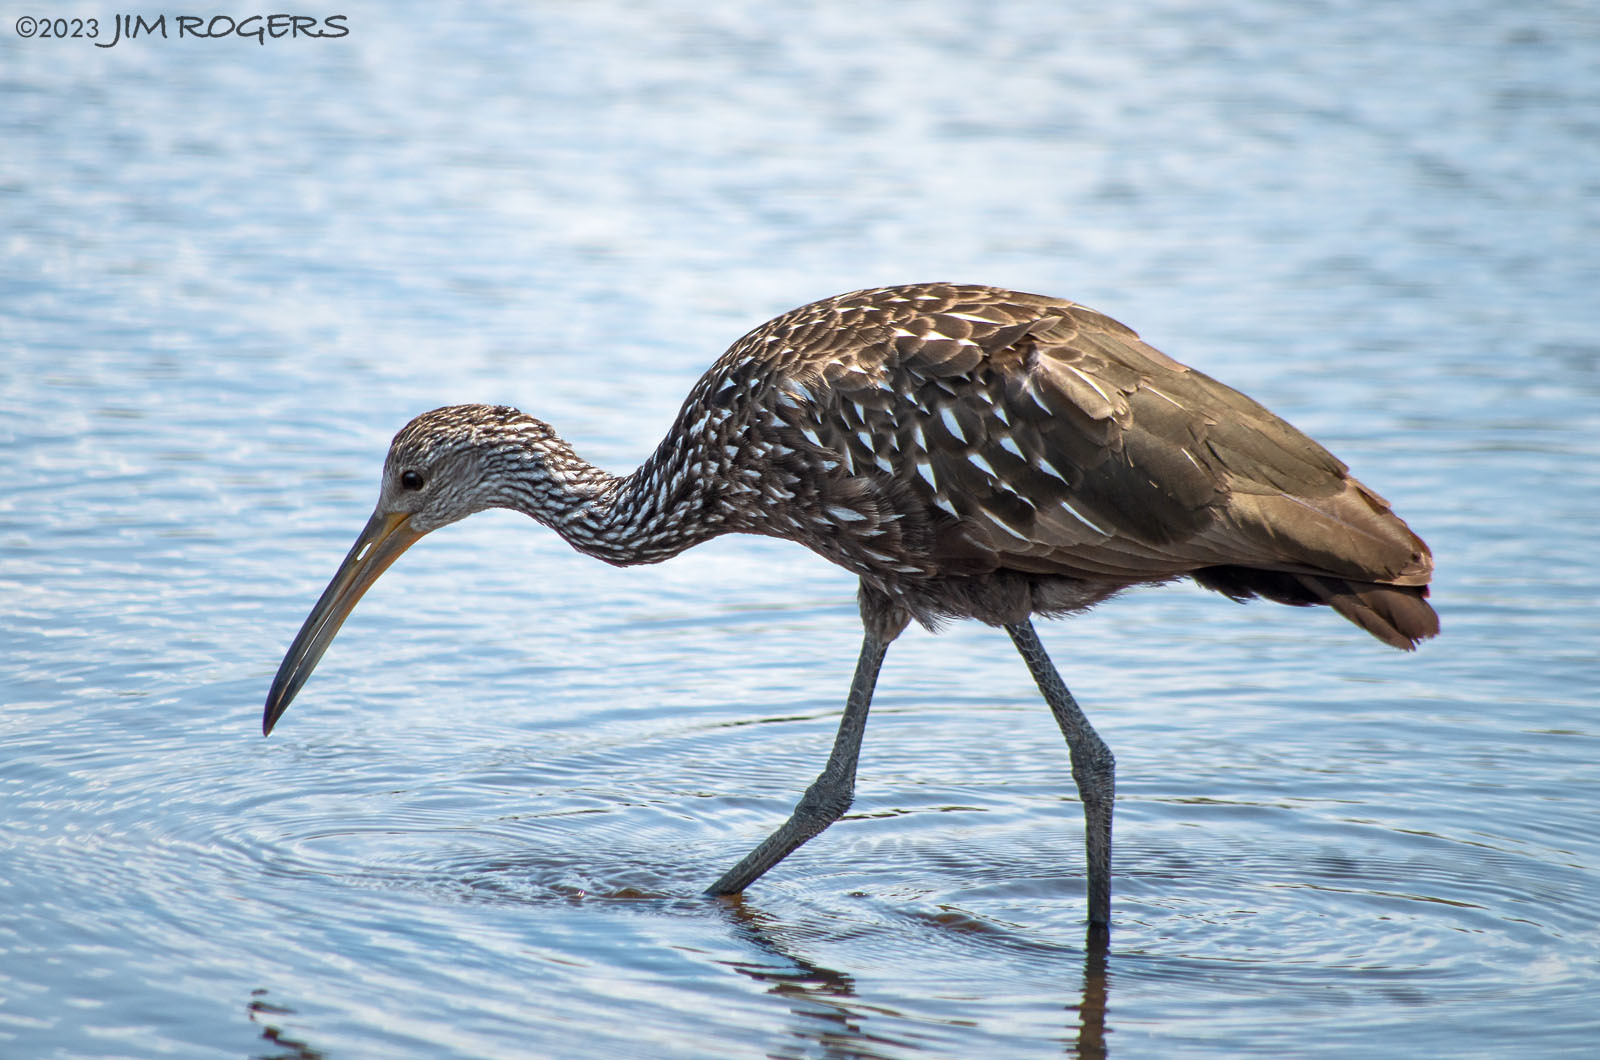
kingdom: Animalia
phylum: Chordata
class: Aves
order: Gruiformes
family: Aramidae
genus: Aramus
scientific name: Aramus guarauna
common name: Limpkin
